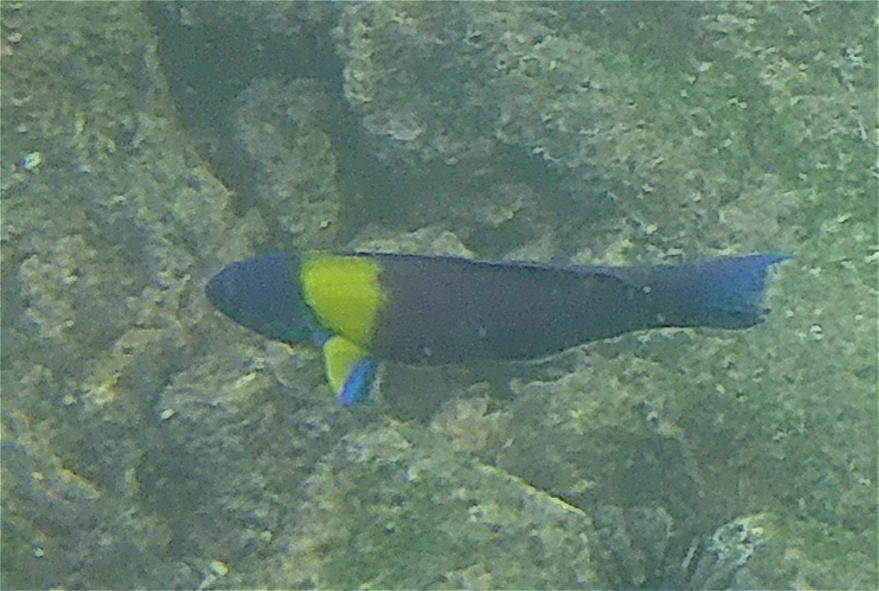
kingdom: Animalia
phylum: Chordata
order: Perciformes
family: Labridae
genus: Thalassoma
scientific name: Thalassoma lucasanum
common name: Cortez rainbow wrasse
